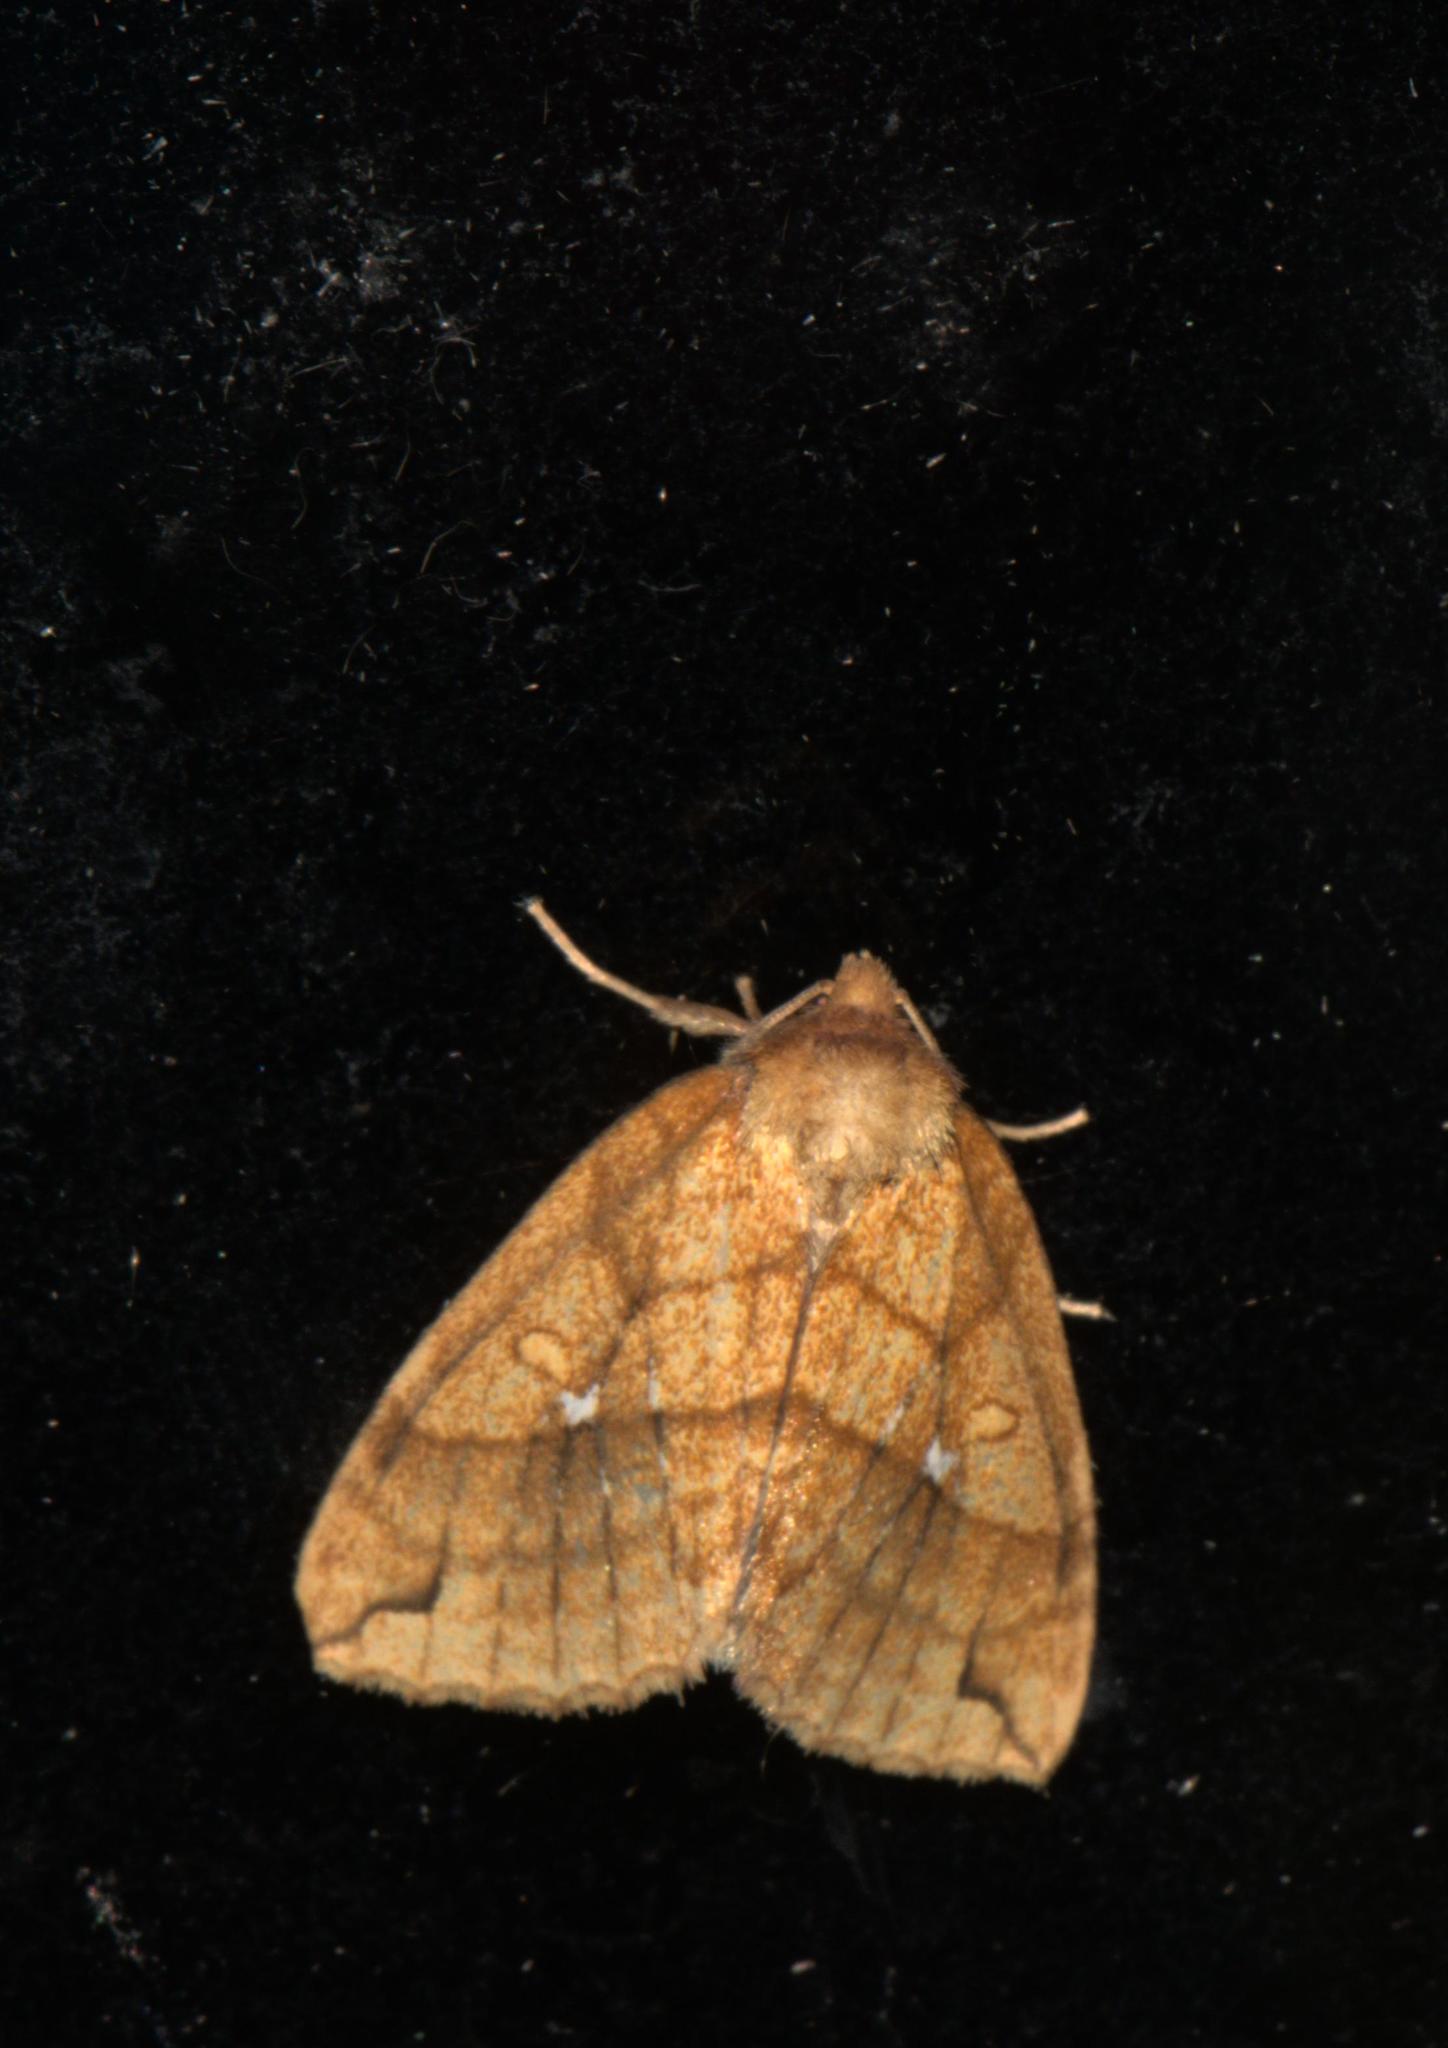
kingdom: Animalia
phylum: Arthropoda
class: Insecta
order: Lepidoptera
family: Noctuidae
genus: Xanthia
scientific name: Xanthia rectilineata
